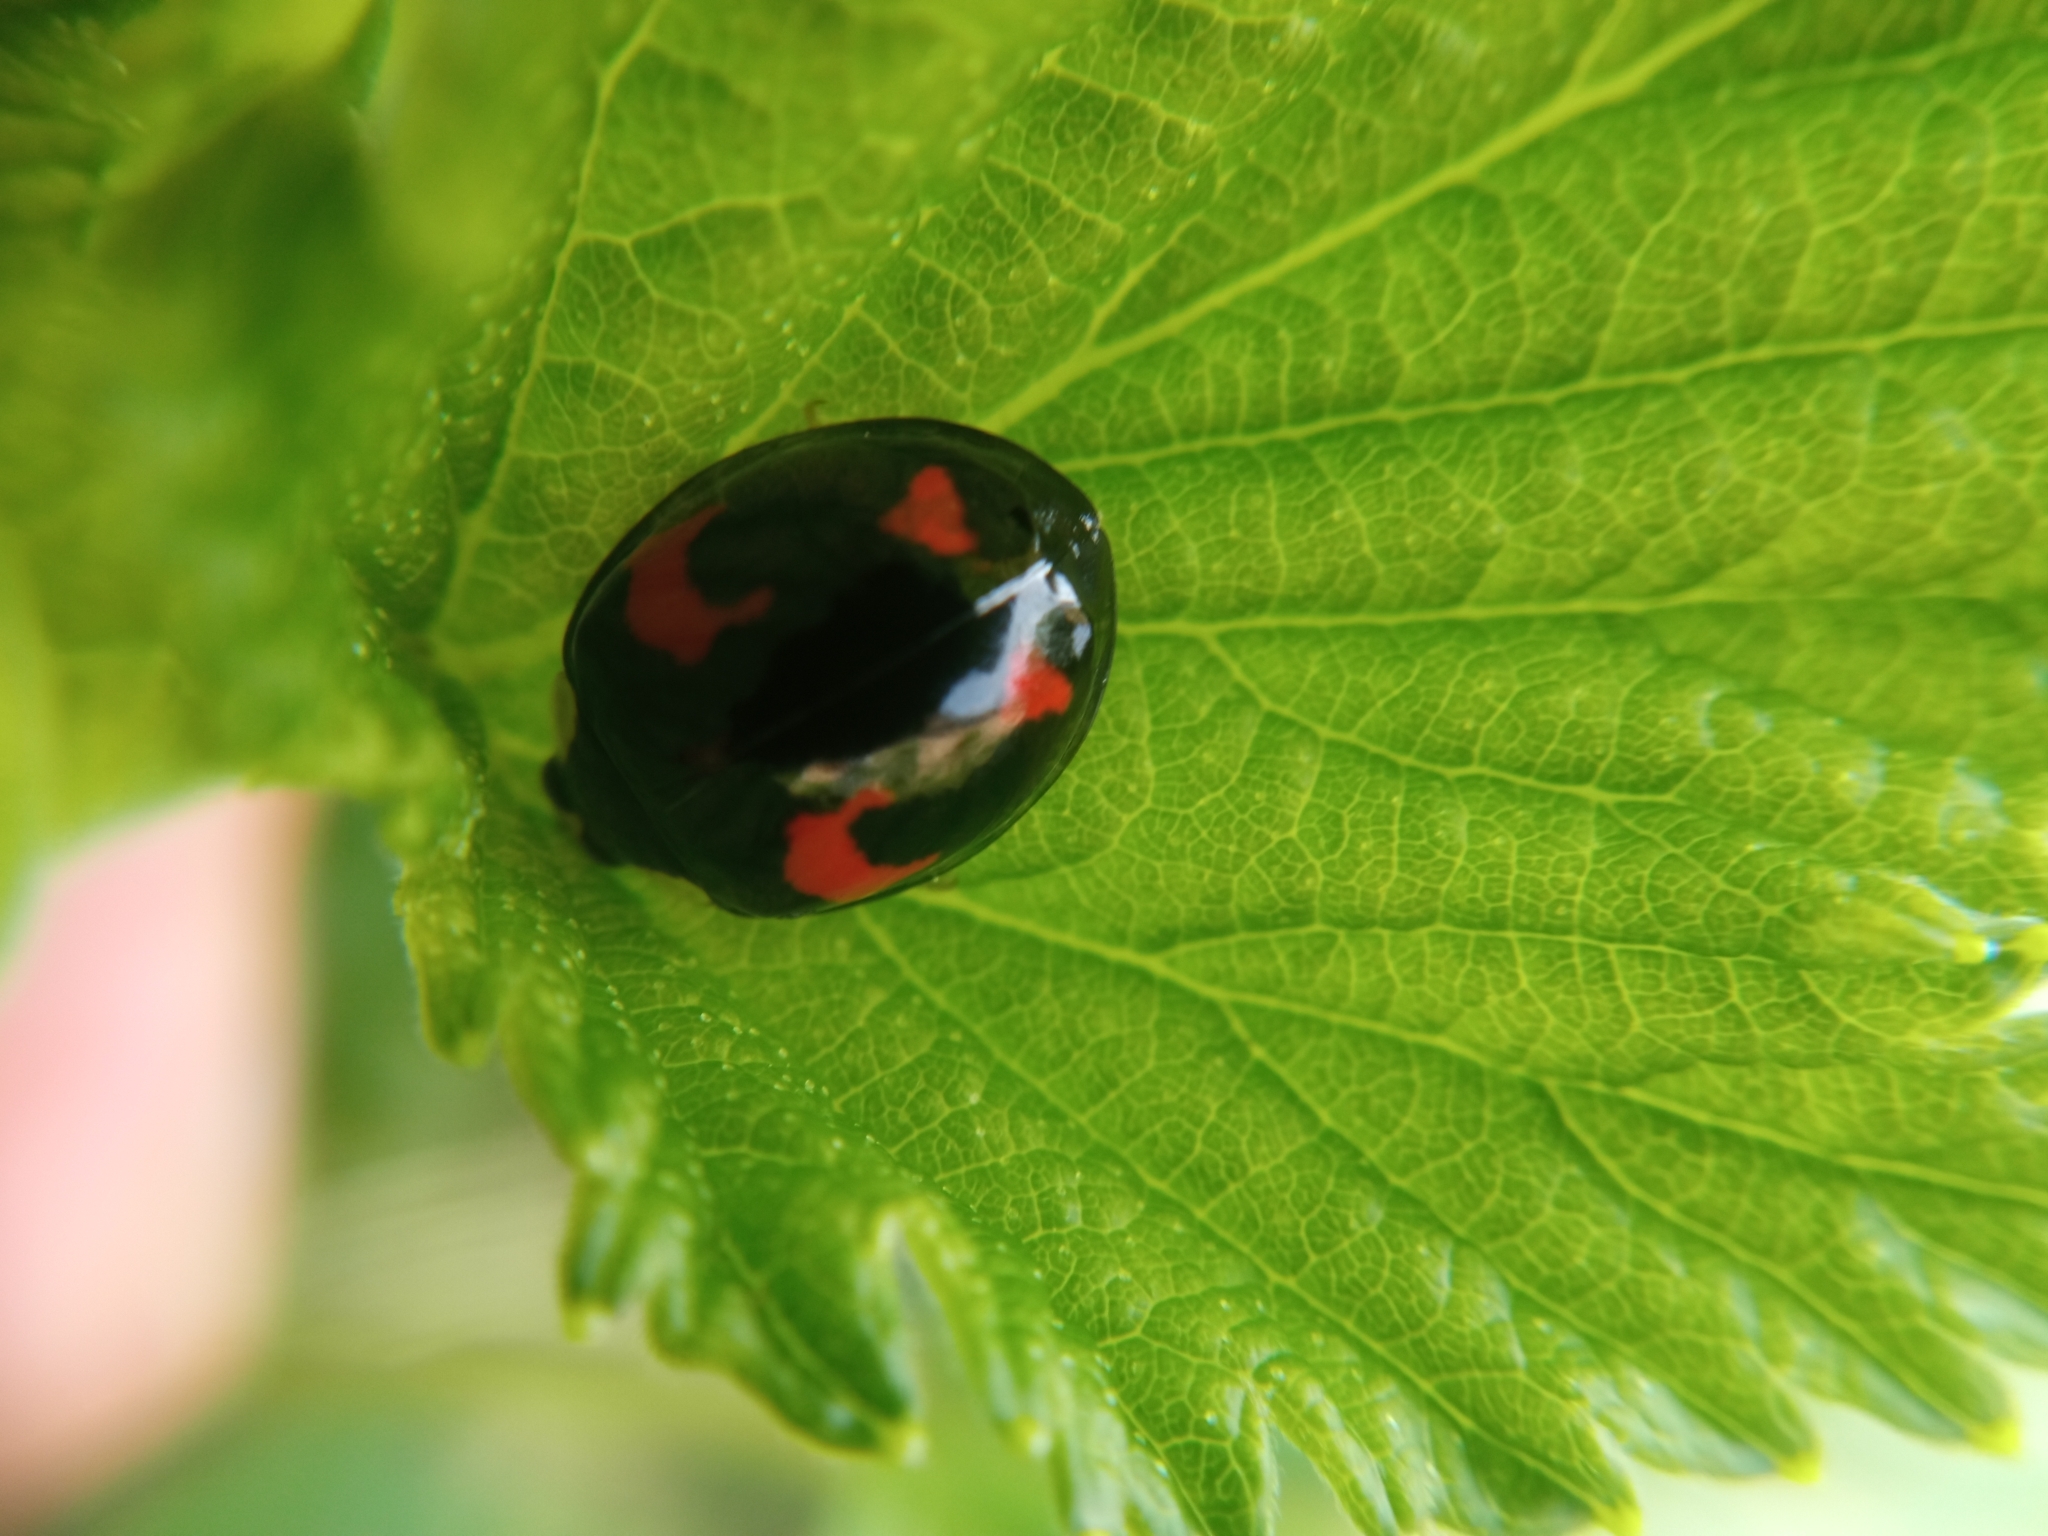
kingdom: Animalia
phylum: Arthropoda
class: Insecta
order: Coleoptera
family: Coccinellidae
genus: Harmonia
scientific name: Harmonia axyridis
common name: Harlequin ladybird
